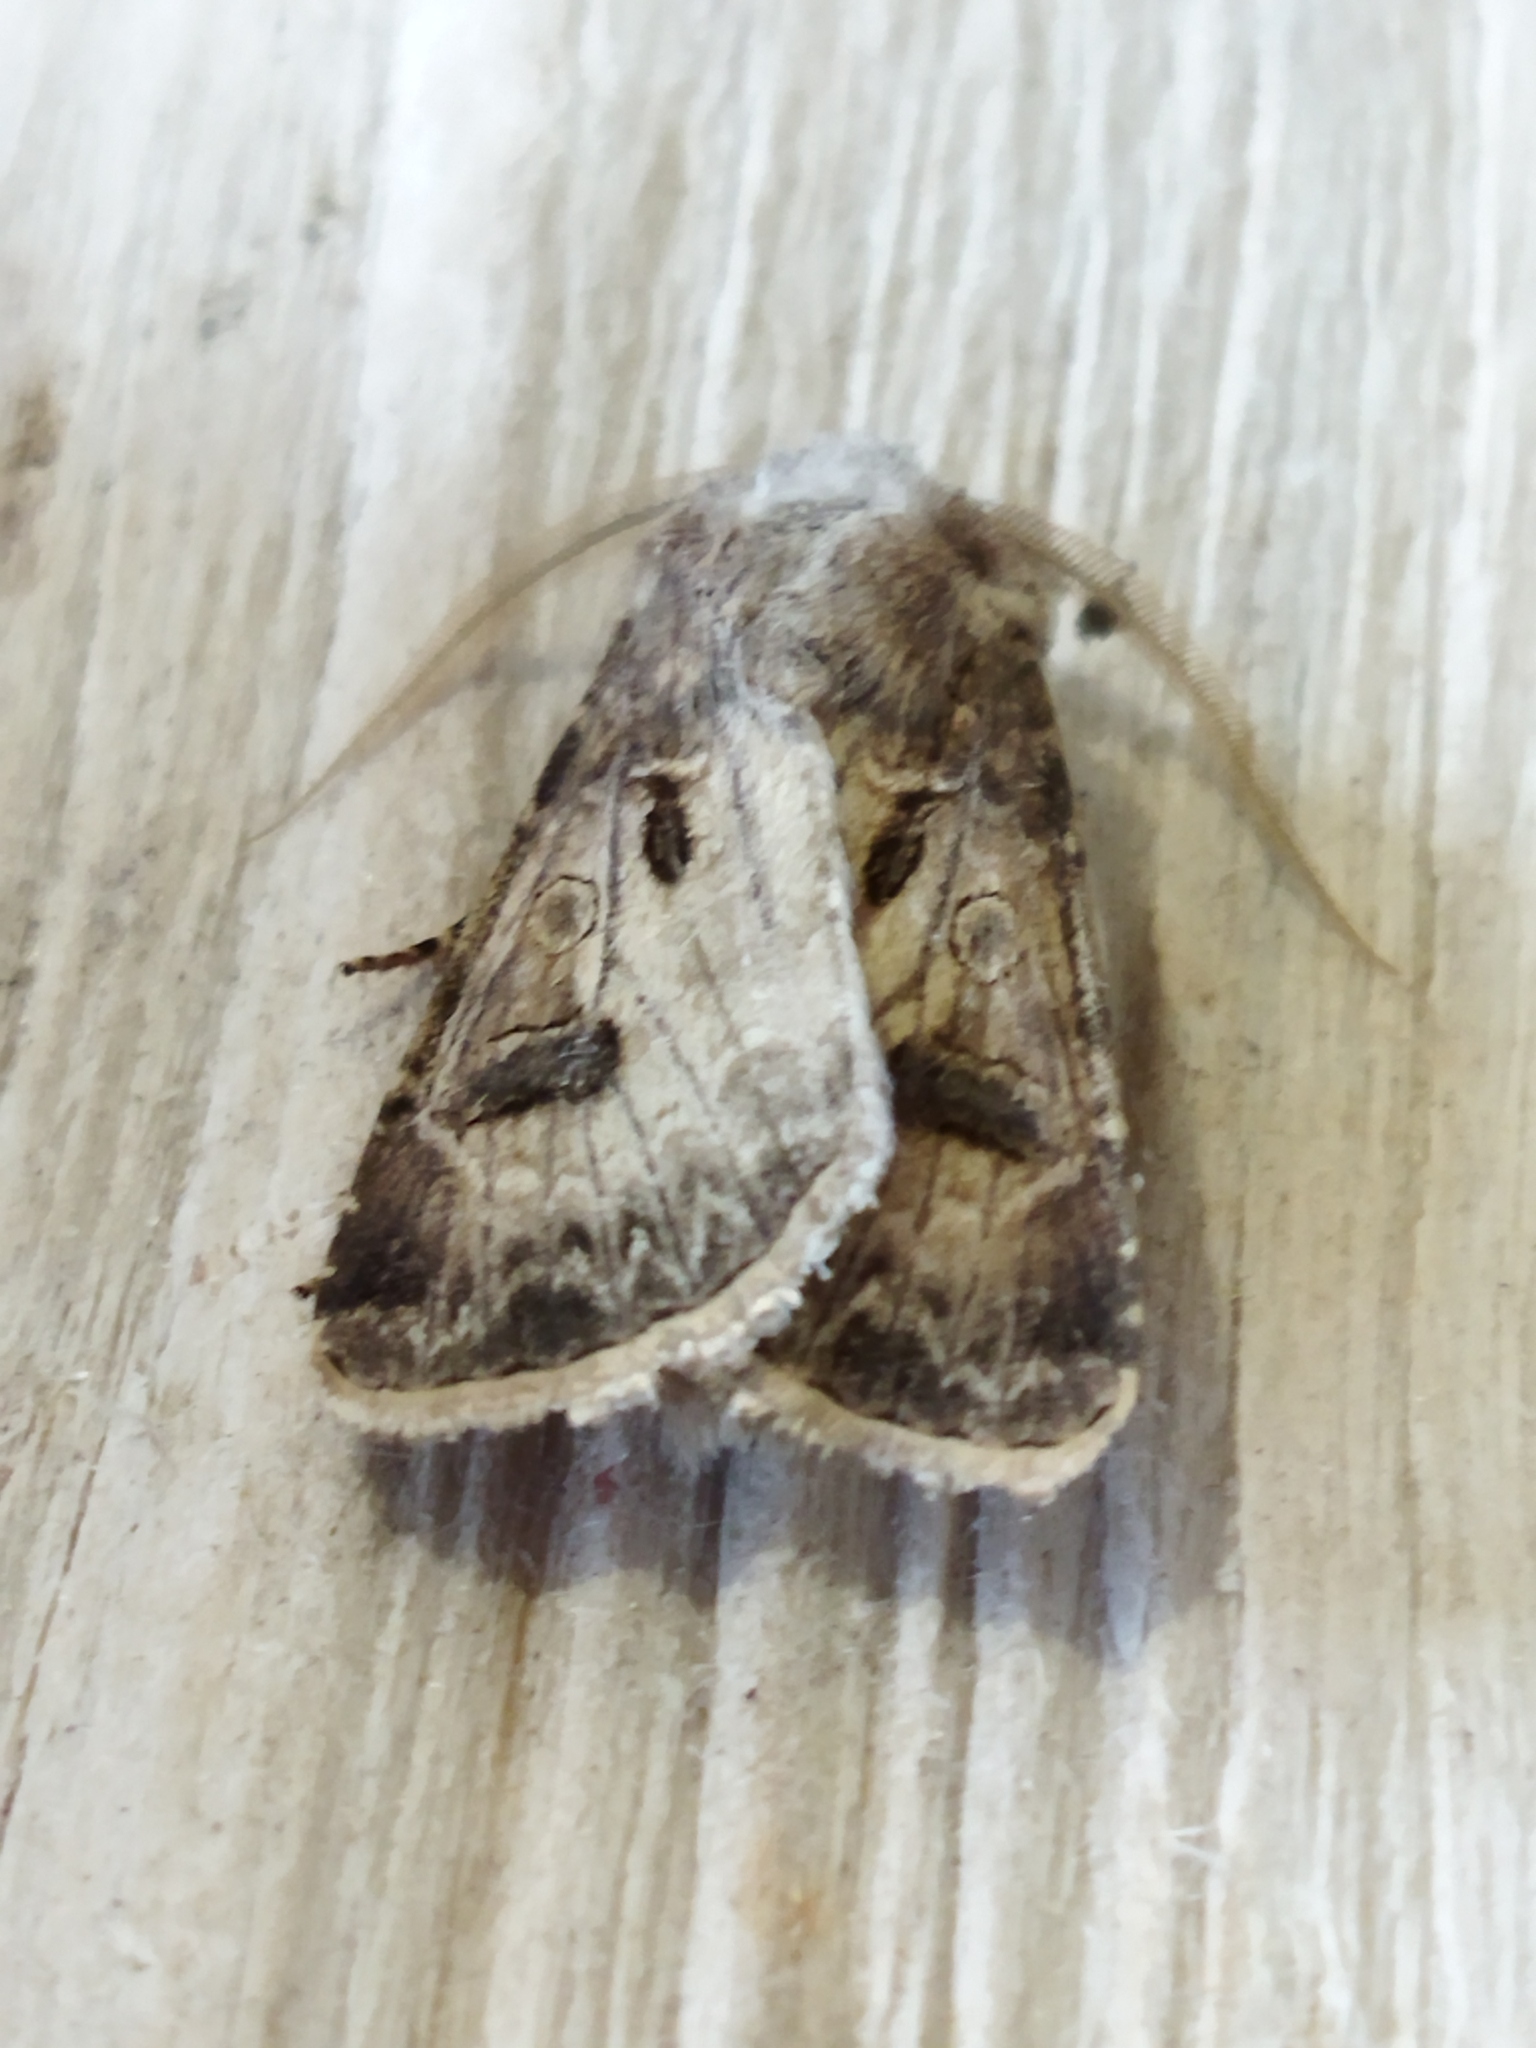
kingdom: Animalia
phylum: Arthropoda
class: Insecta
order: Lepidoptera
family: Noctuidae
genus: Agrotis
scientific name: Agrotis bigramma
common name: Great dart
